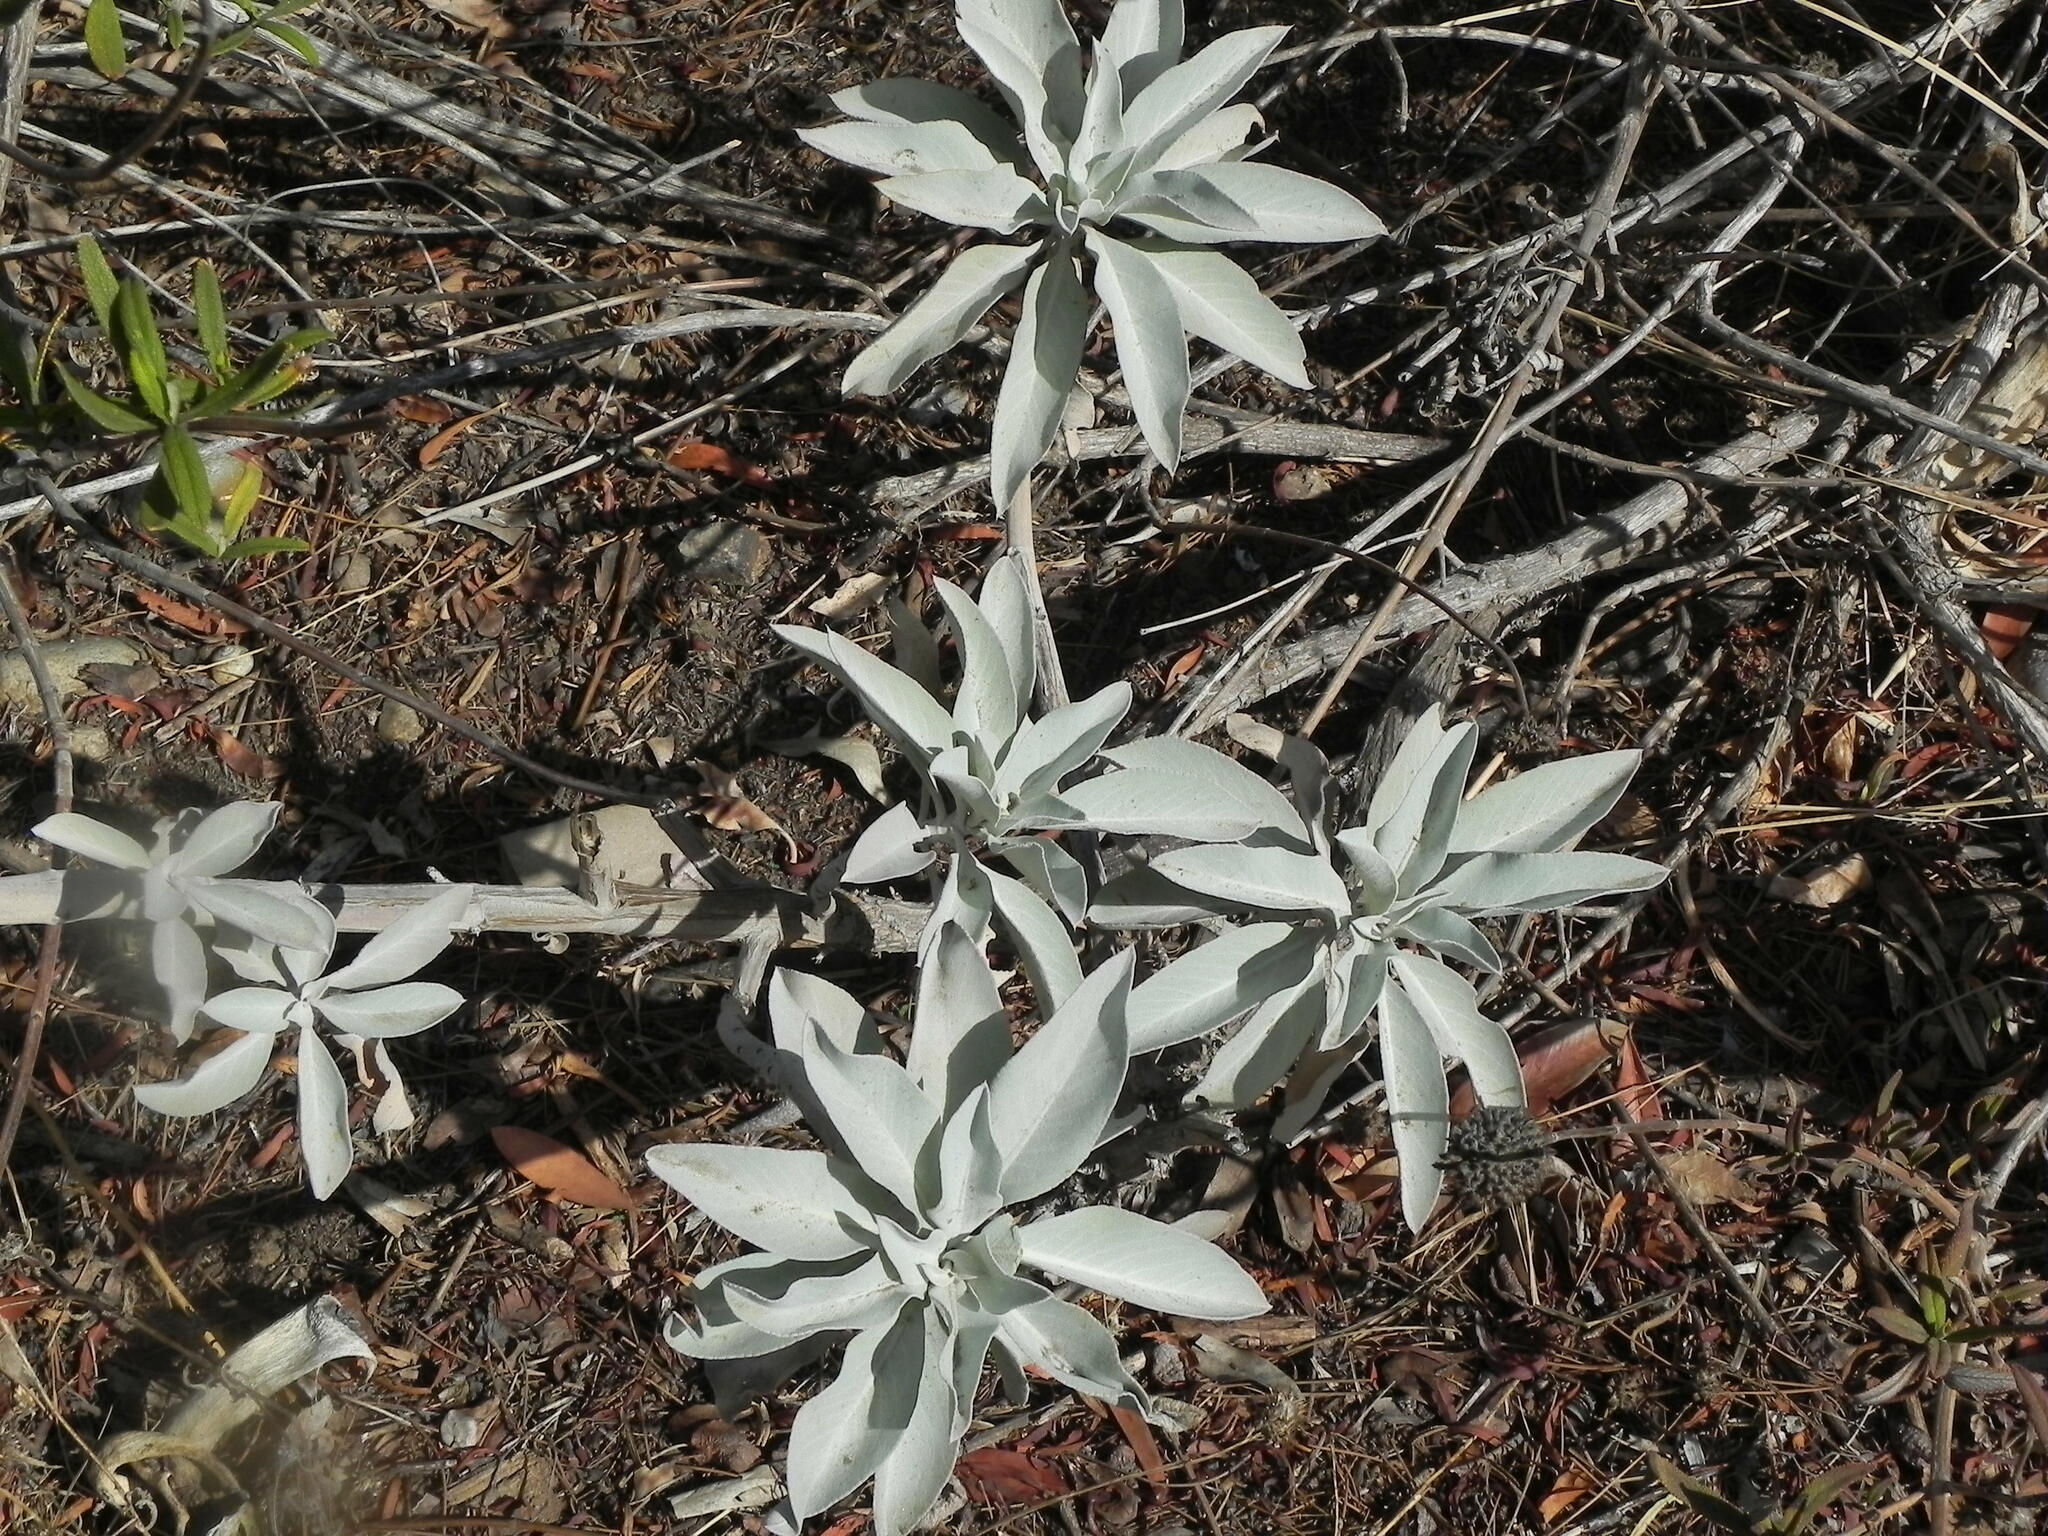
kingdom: Plantae
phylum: Tracheophyta
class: Magnoliopsida
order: Lamiales
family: Lamiaceae
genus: Salvia
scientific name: Salvia apiana
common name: White sage
